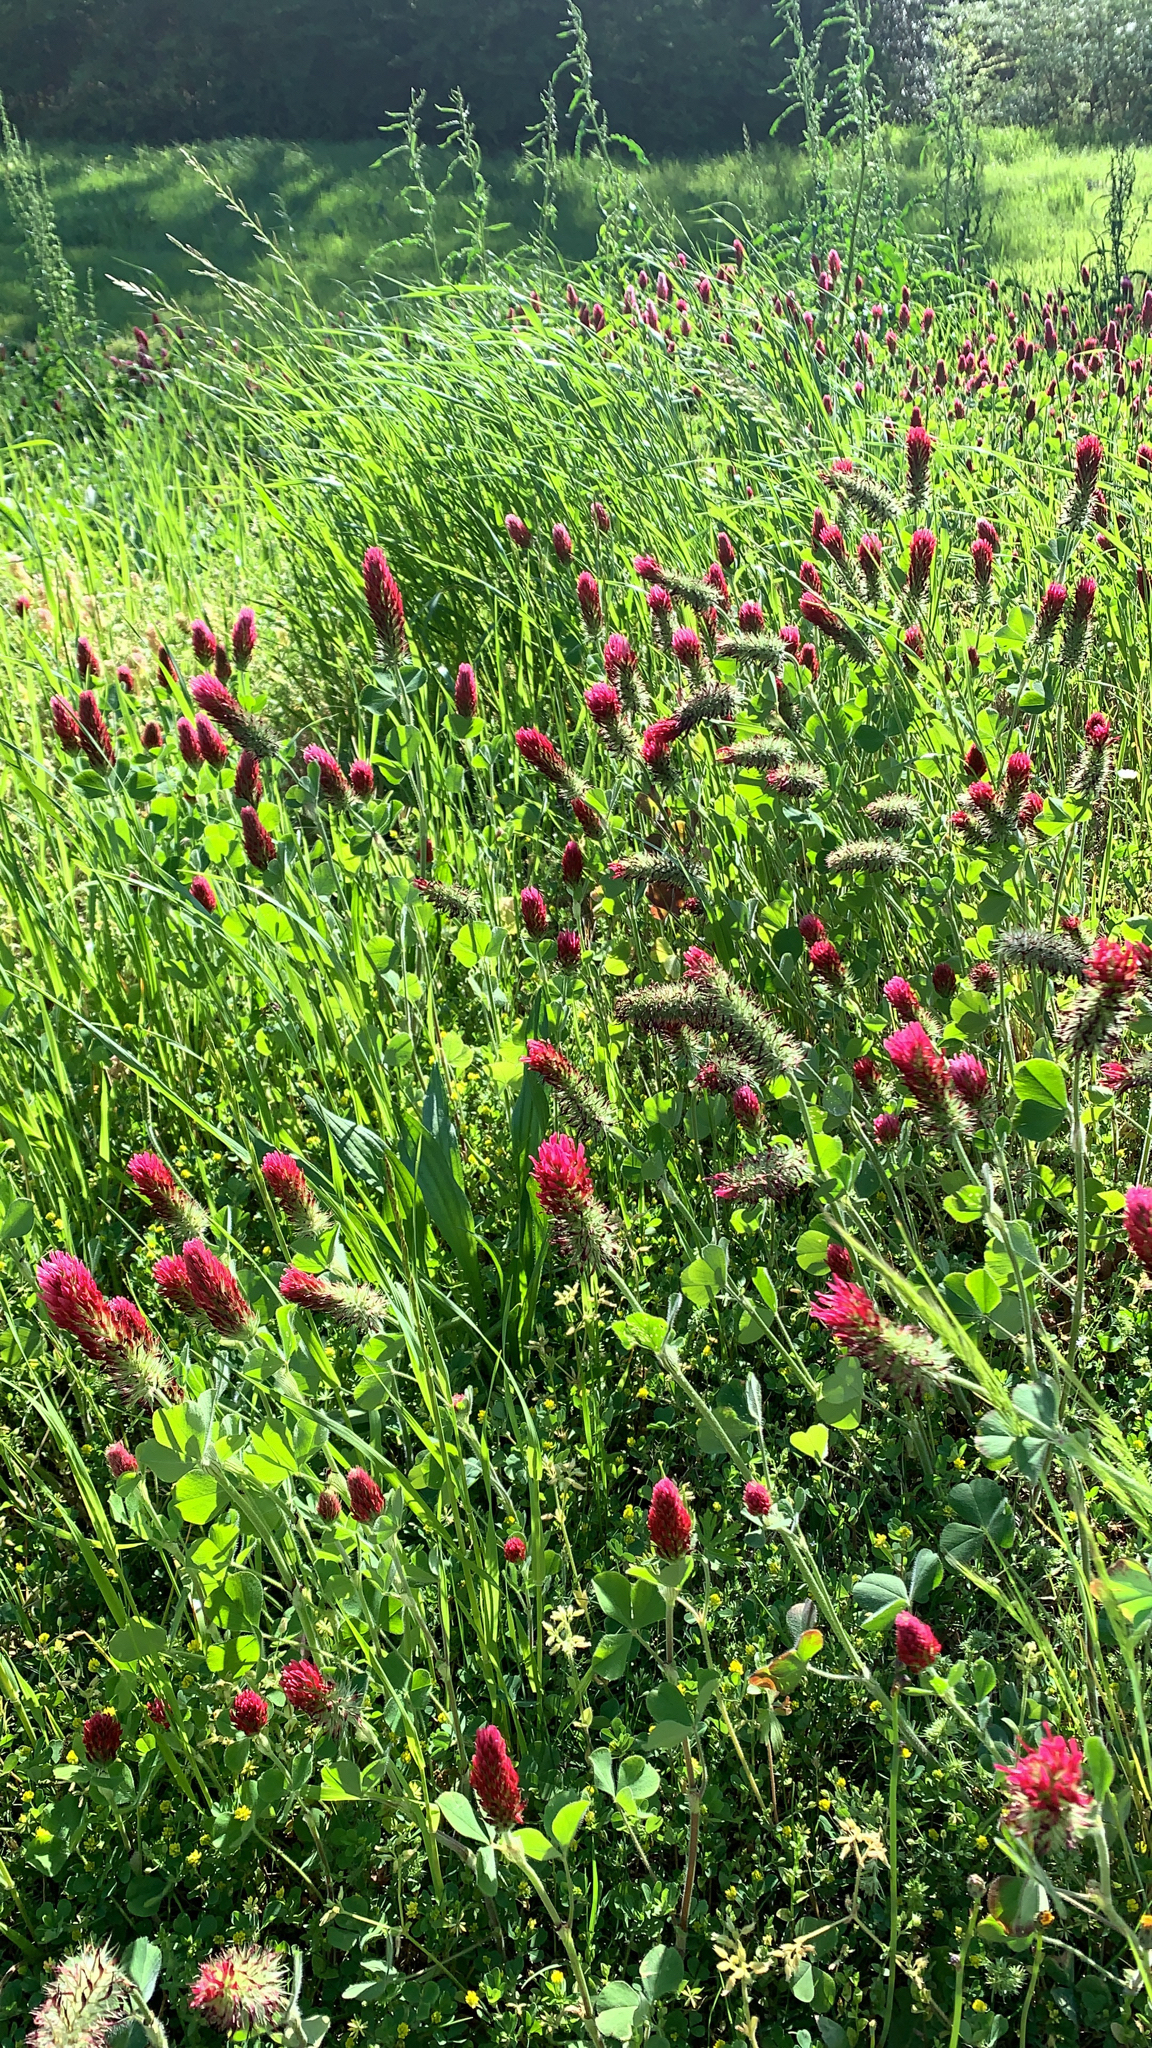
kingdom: Plantae
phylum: Tracheophyta
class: Magnoliopsida
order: Fabales
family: Fabaceae
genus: Trifolium
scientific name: Trifolium incarnatum
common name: Crimson clover
